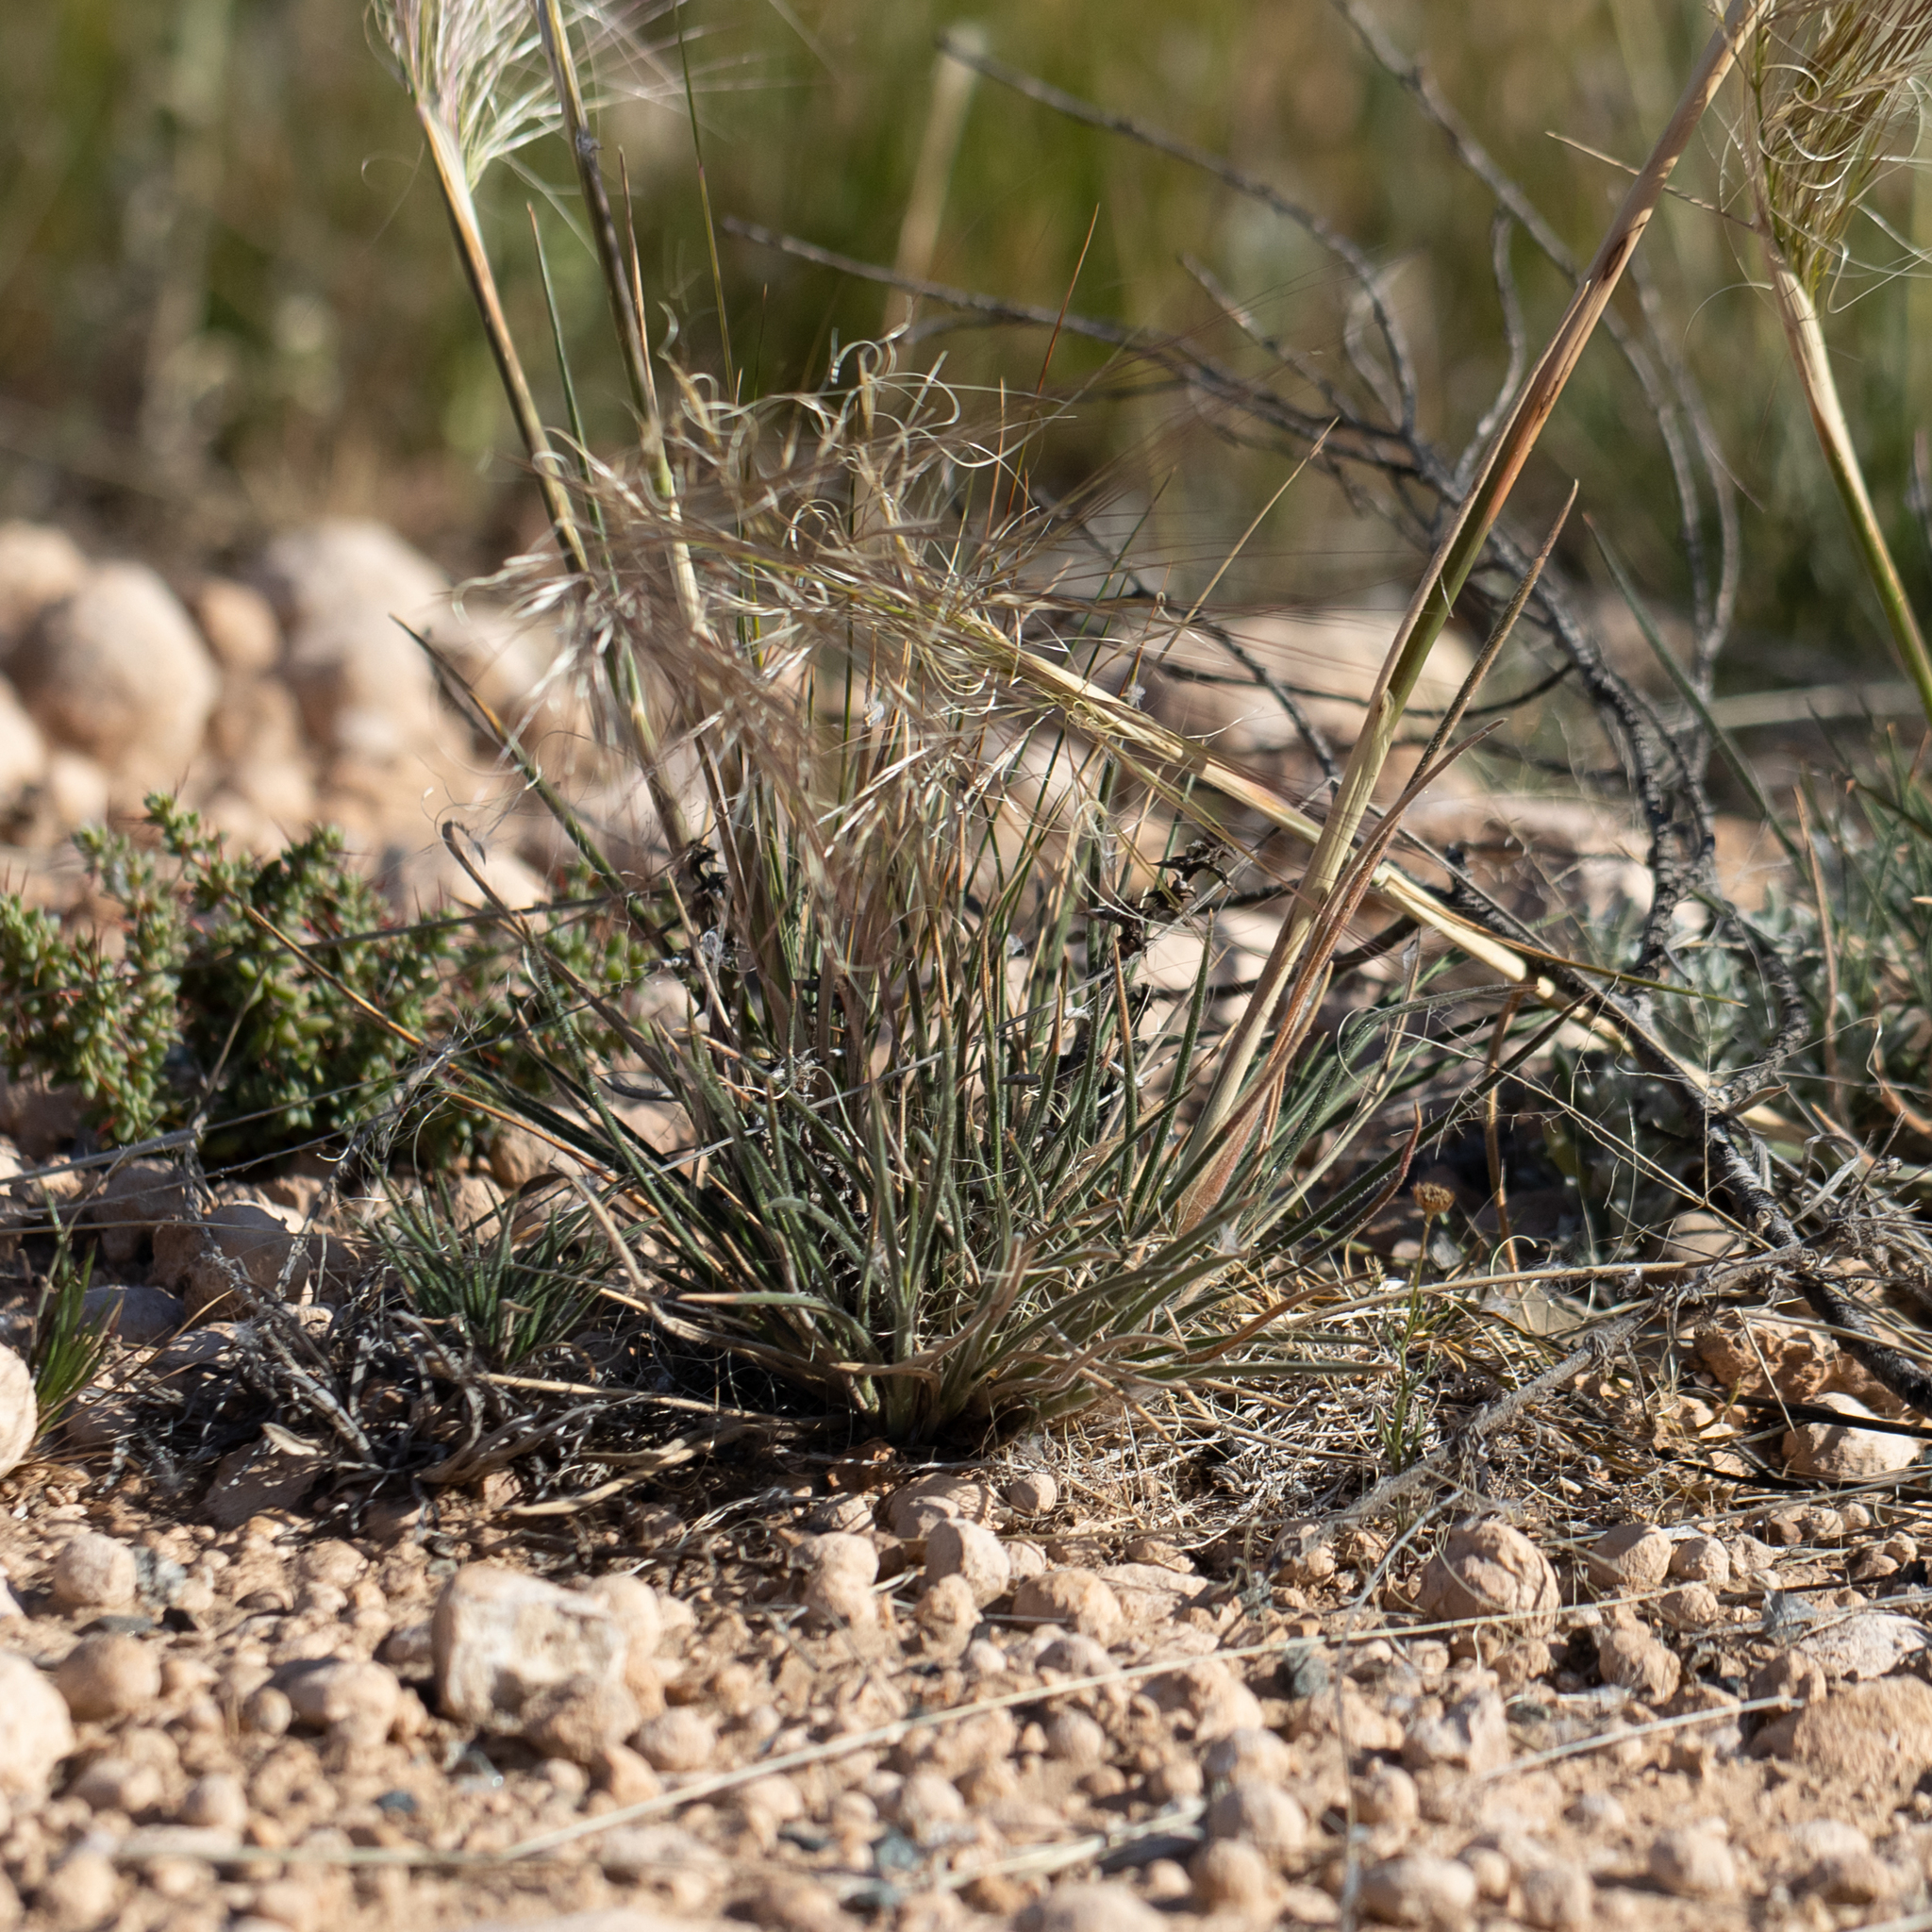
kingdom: Plantae
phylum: Tracheophyta
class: Liliopsida
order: Poales
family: Poaceae
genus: Austrostipa
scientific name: Austrostipa drummondii
